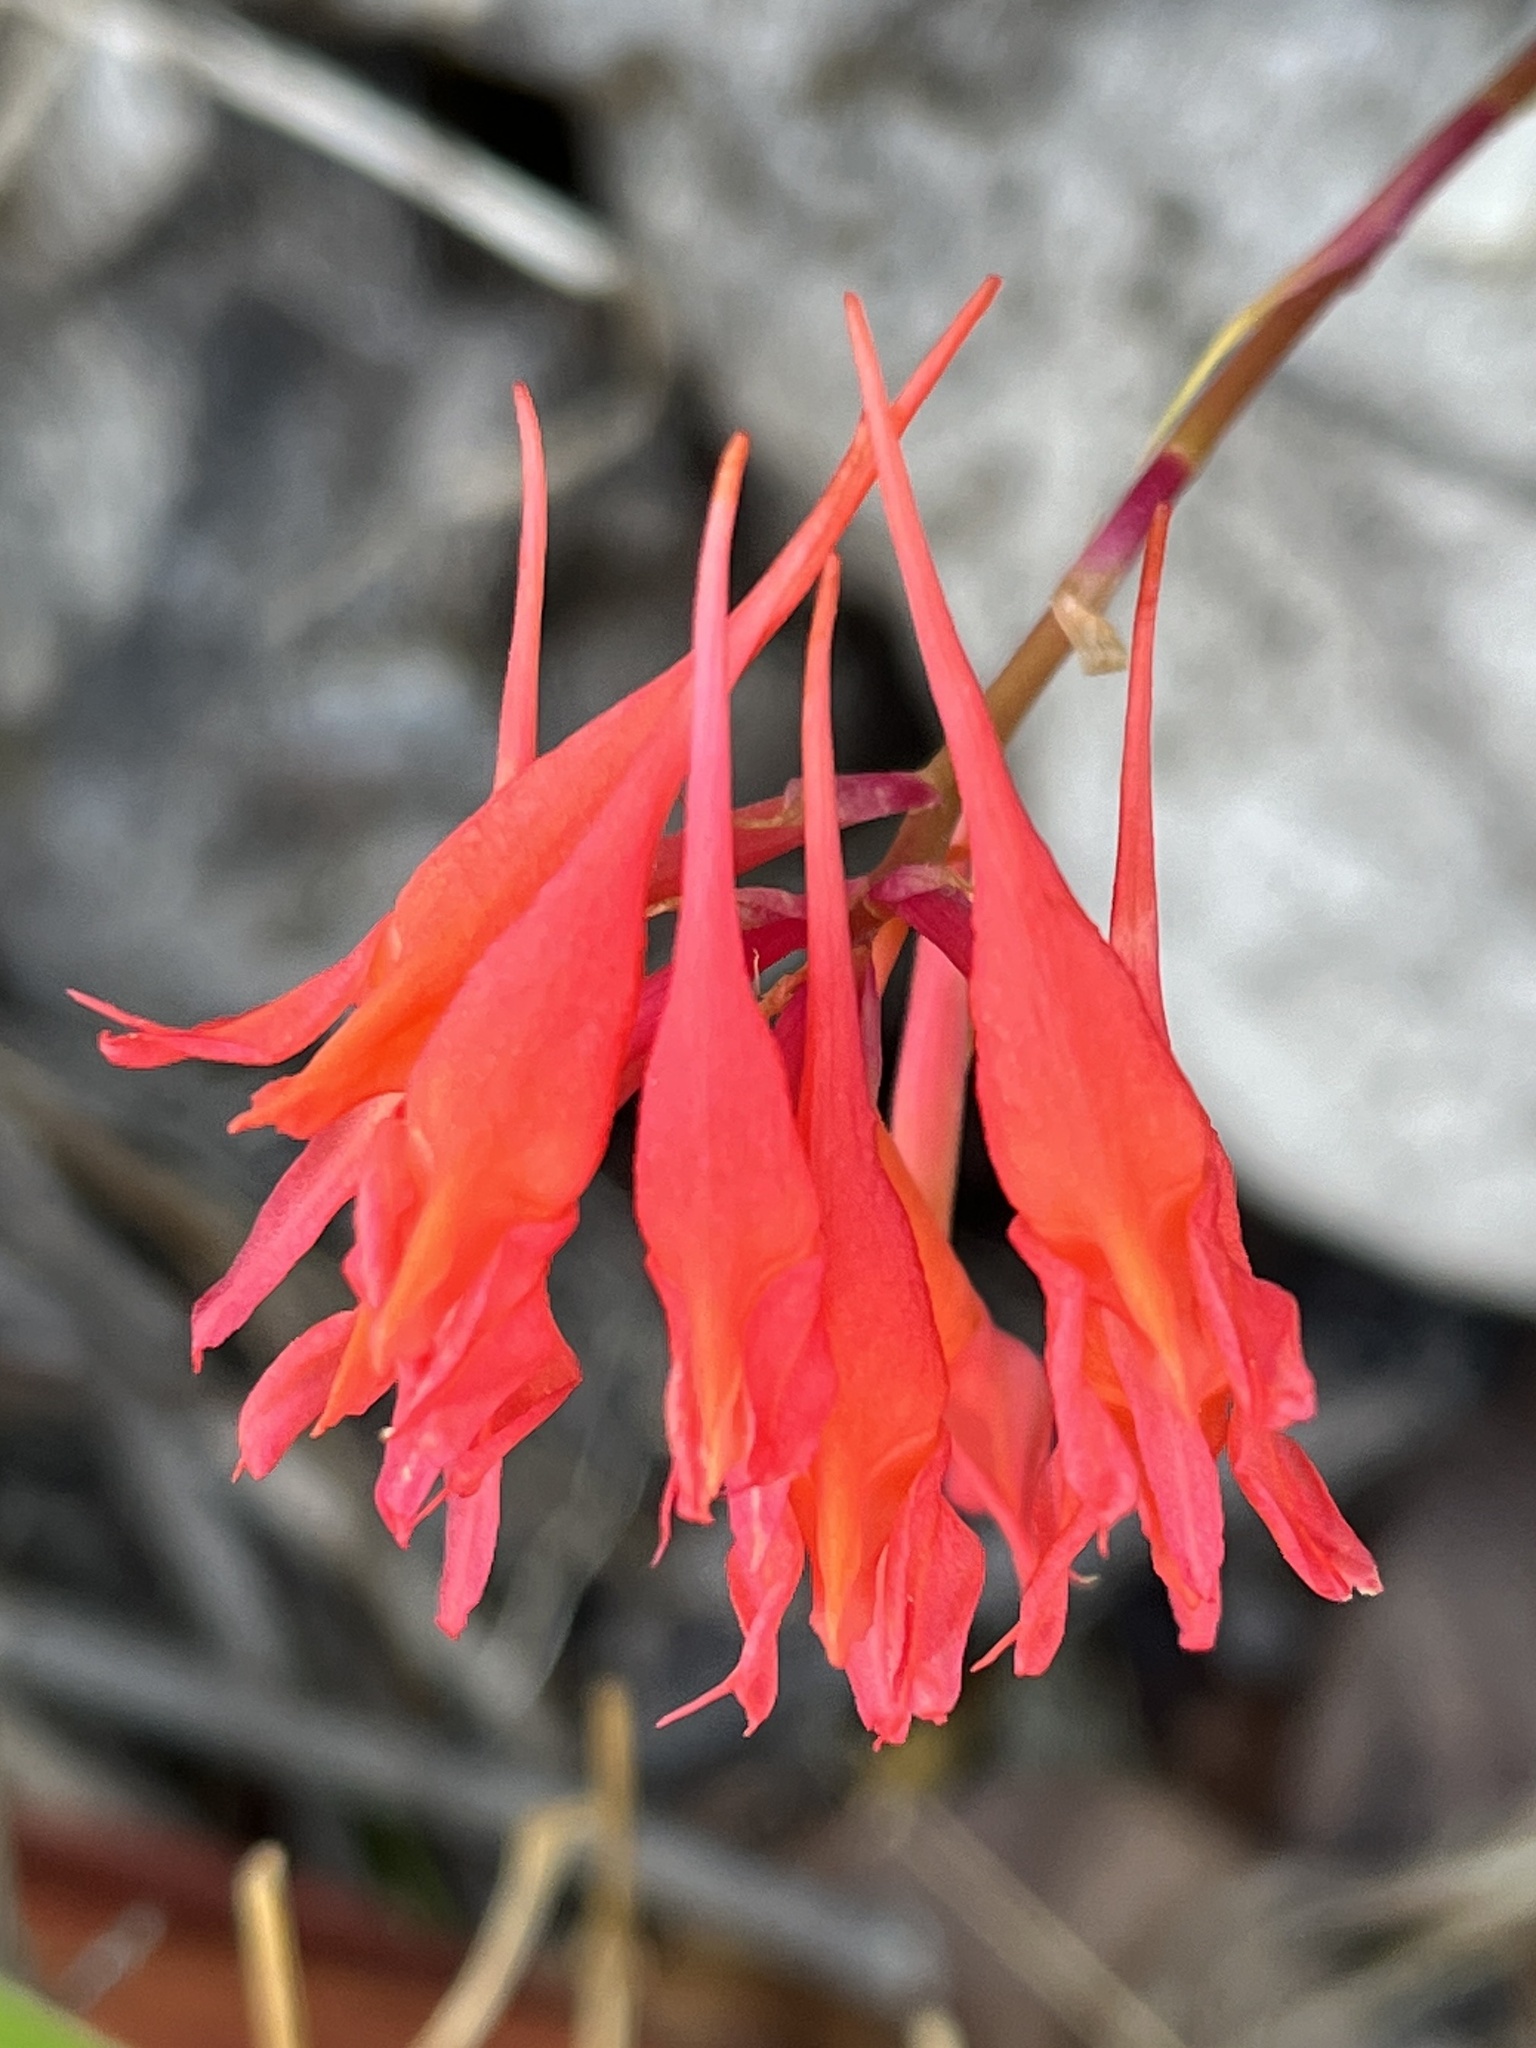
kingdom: Plantae
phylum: Tracheophyta
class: Liliopsida
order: Asparagales
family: Orchidaceae
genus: Disa
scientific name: Disa ferruginea
